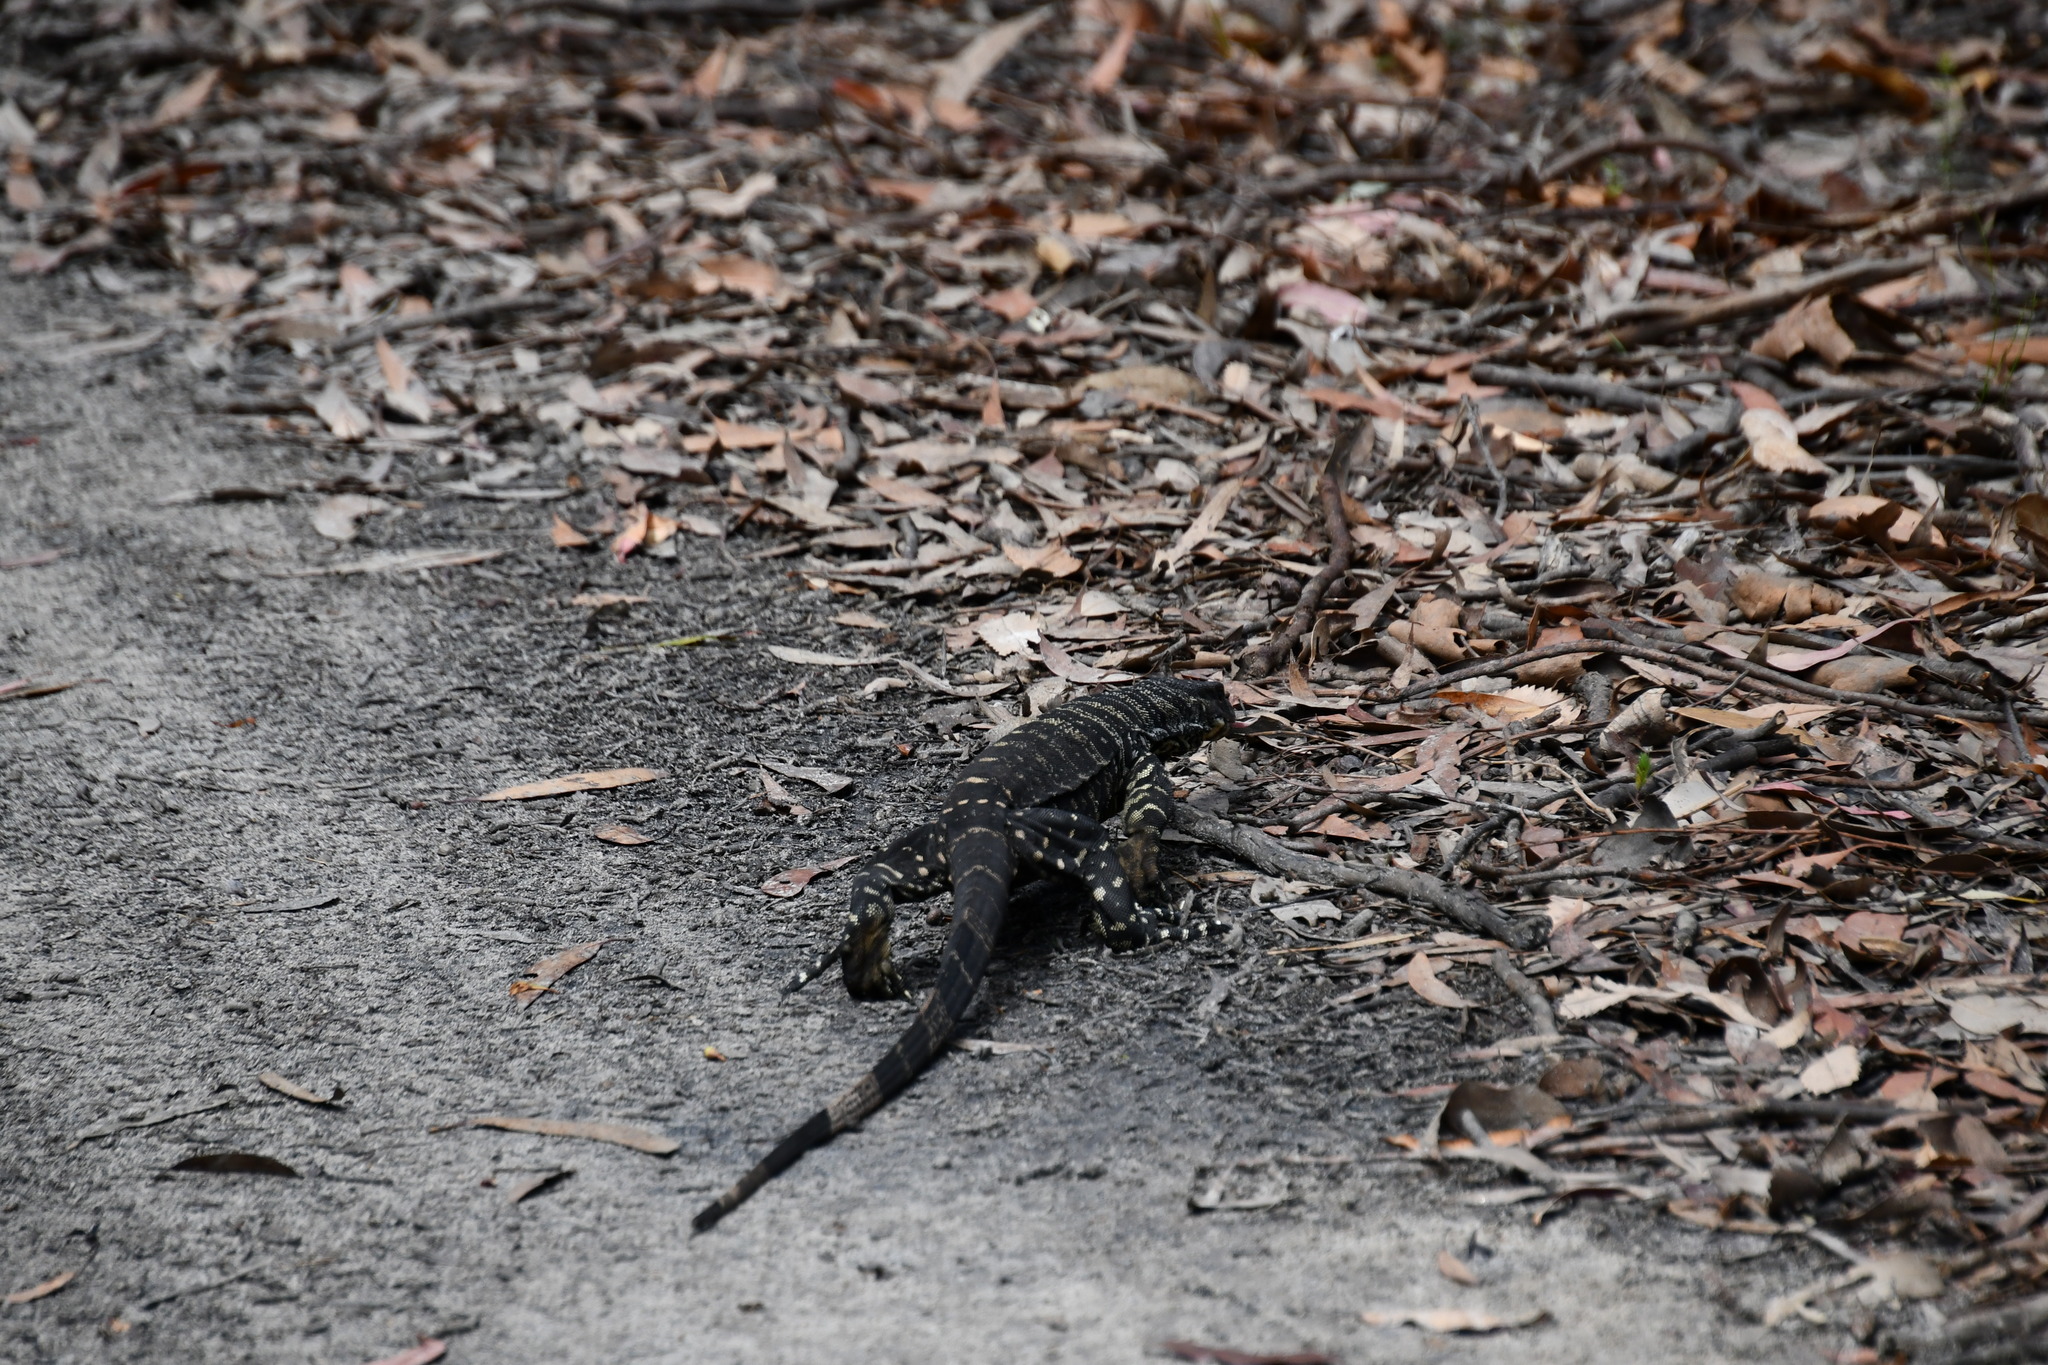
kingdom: Animalia
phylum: Chordata
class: Squamata
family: Varanidae
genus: Varanus
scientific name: Varanus varius
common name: Lace monitor
